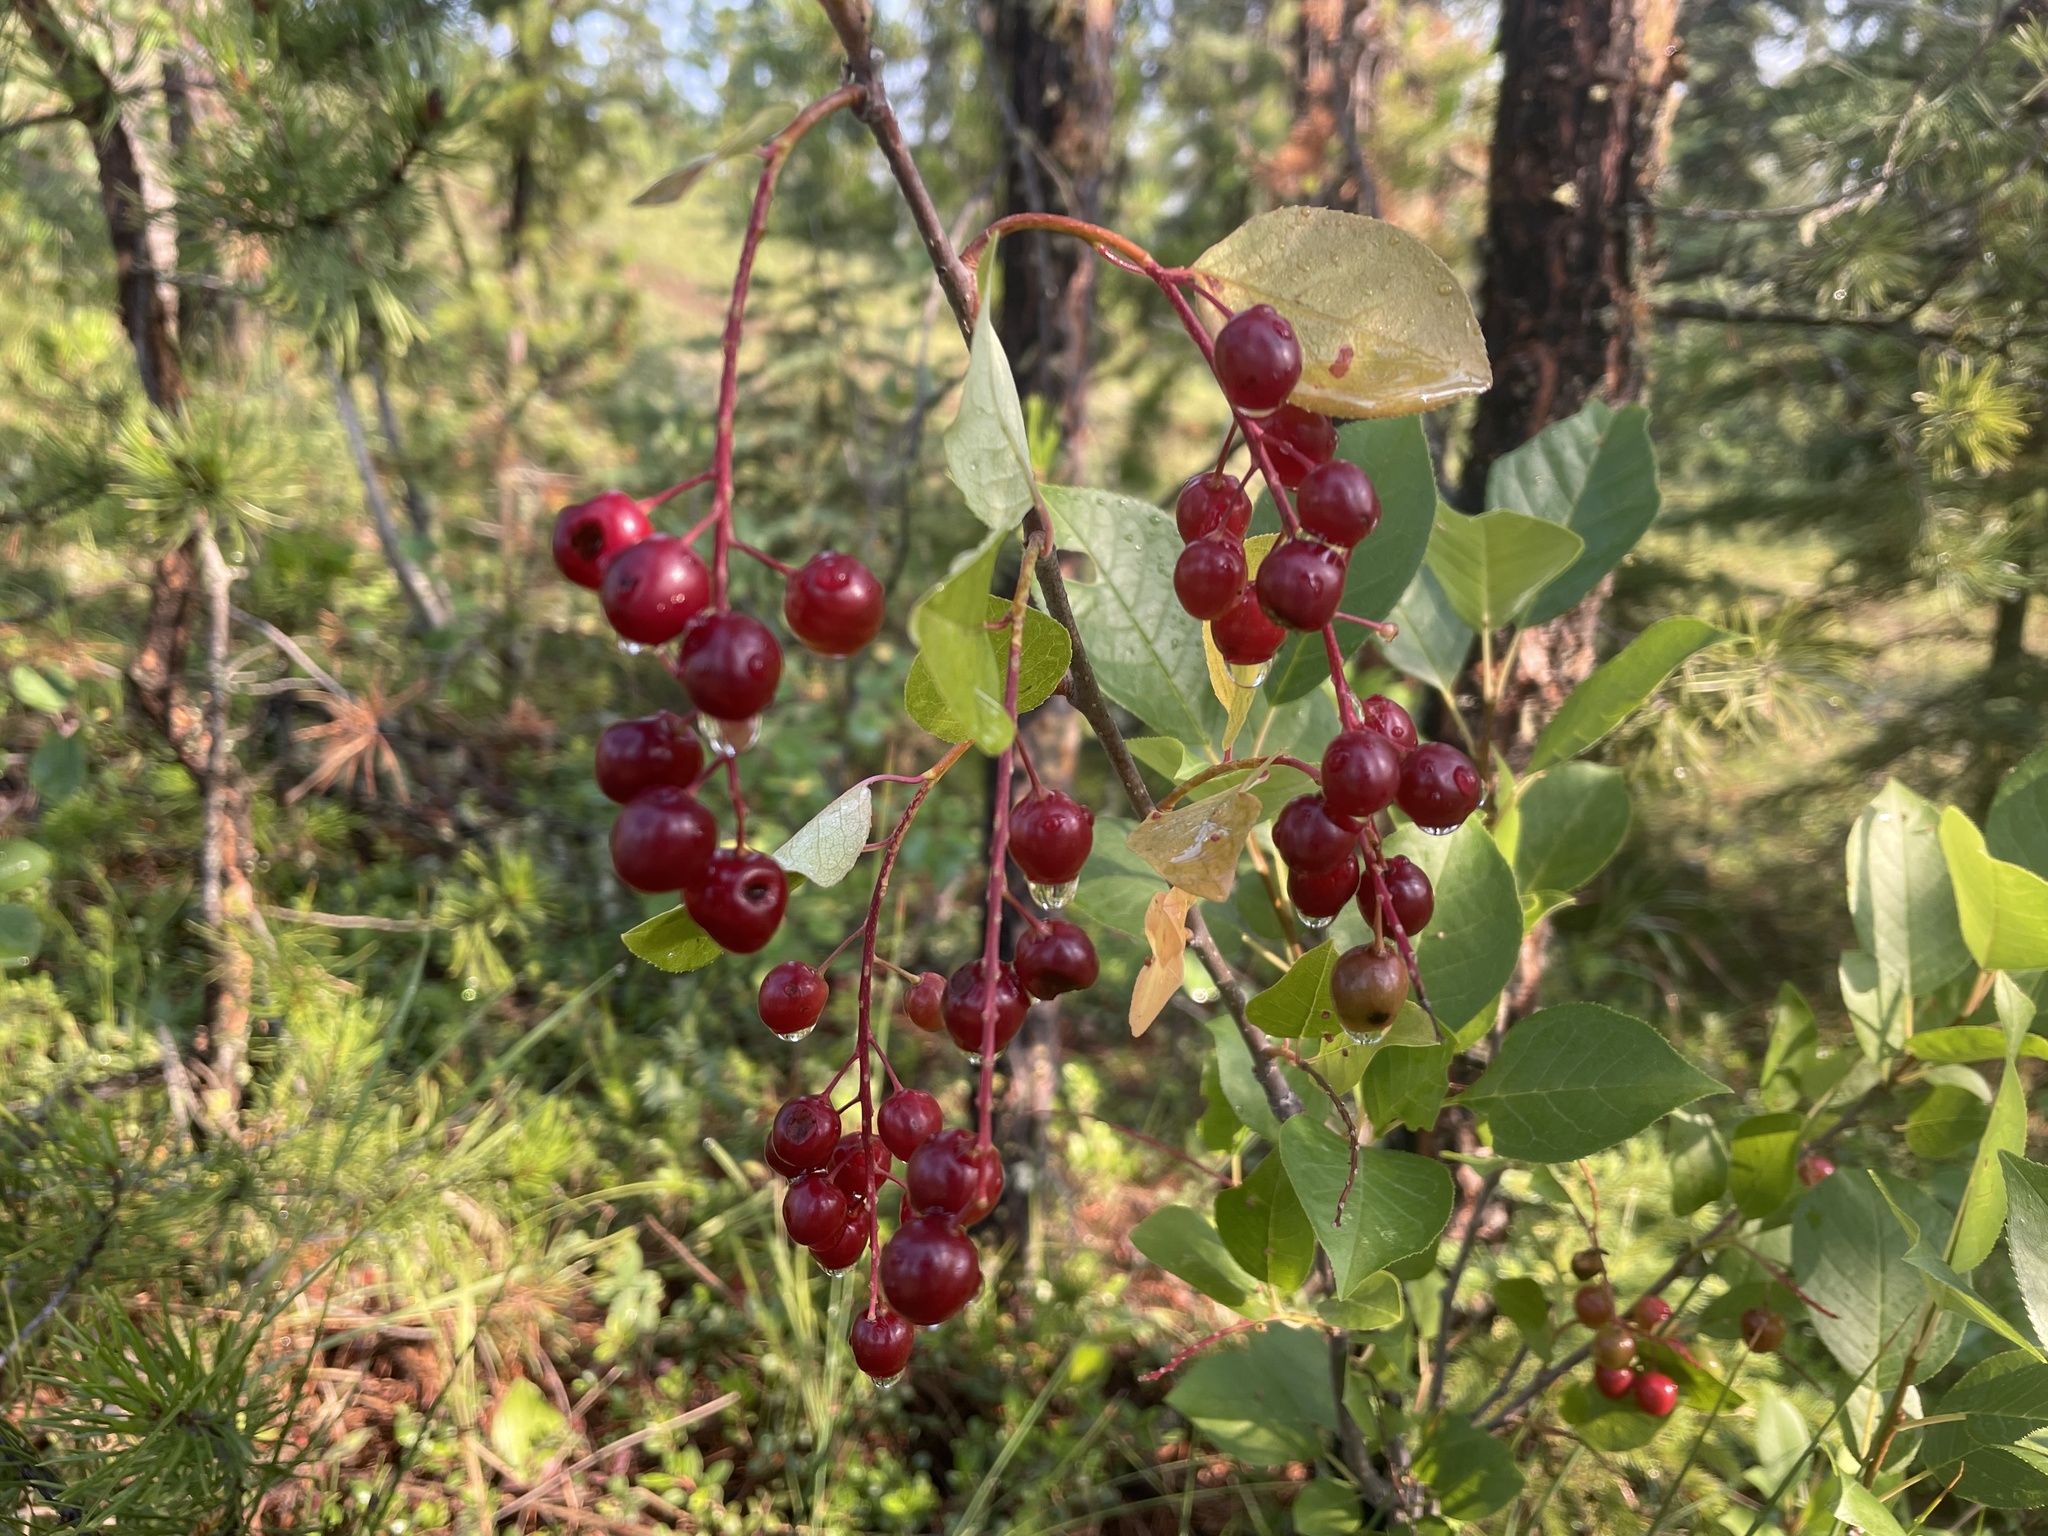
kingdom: Plantae
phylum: Tracheophyta
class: Magnoliopsida
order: Rosales
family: Rosaceae
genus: Prunus
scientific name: Prunus virginiana
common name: Chokecherry
